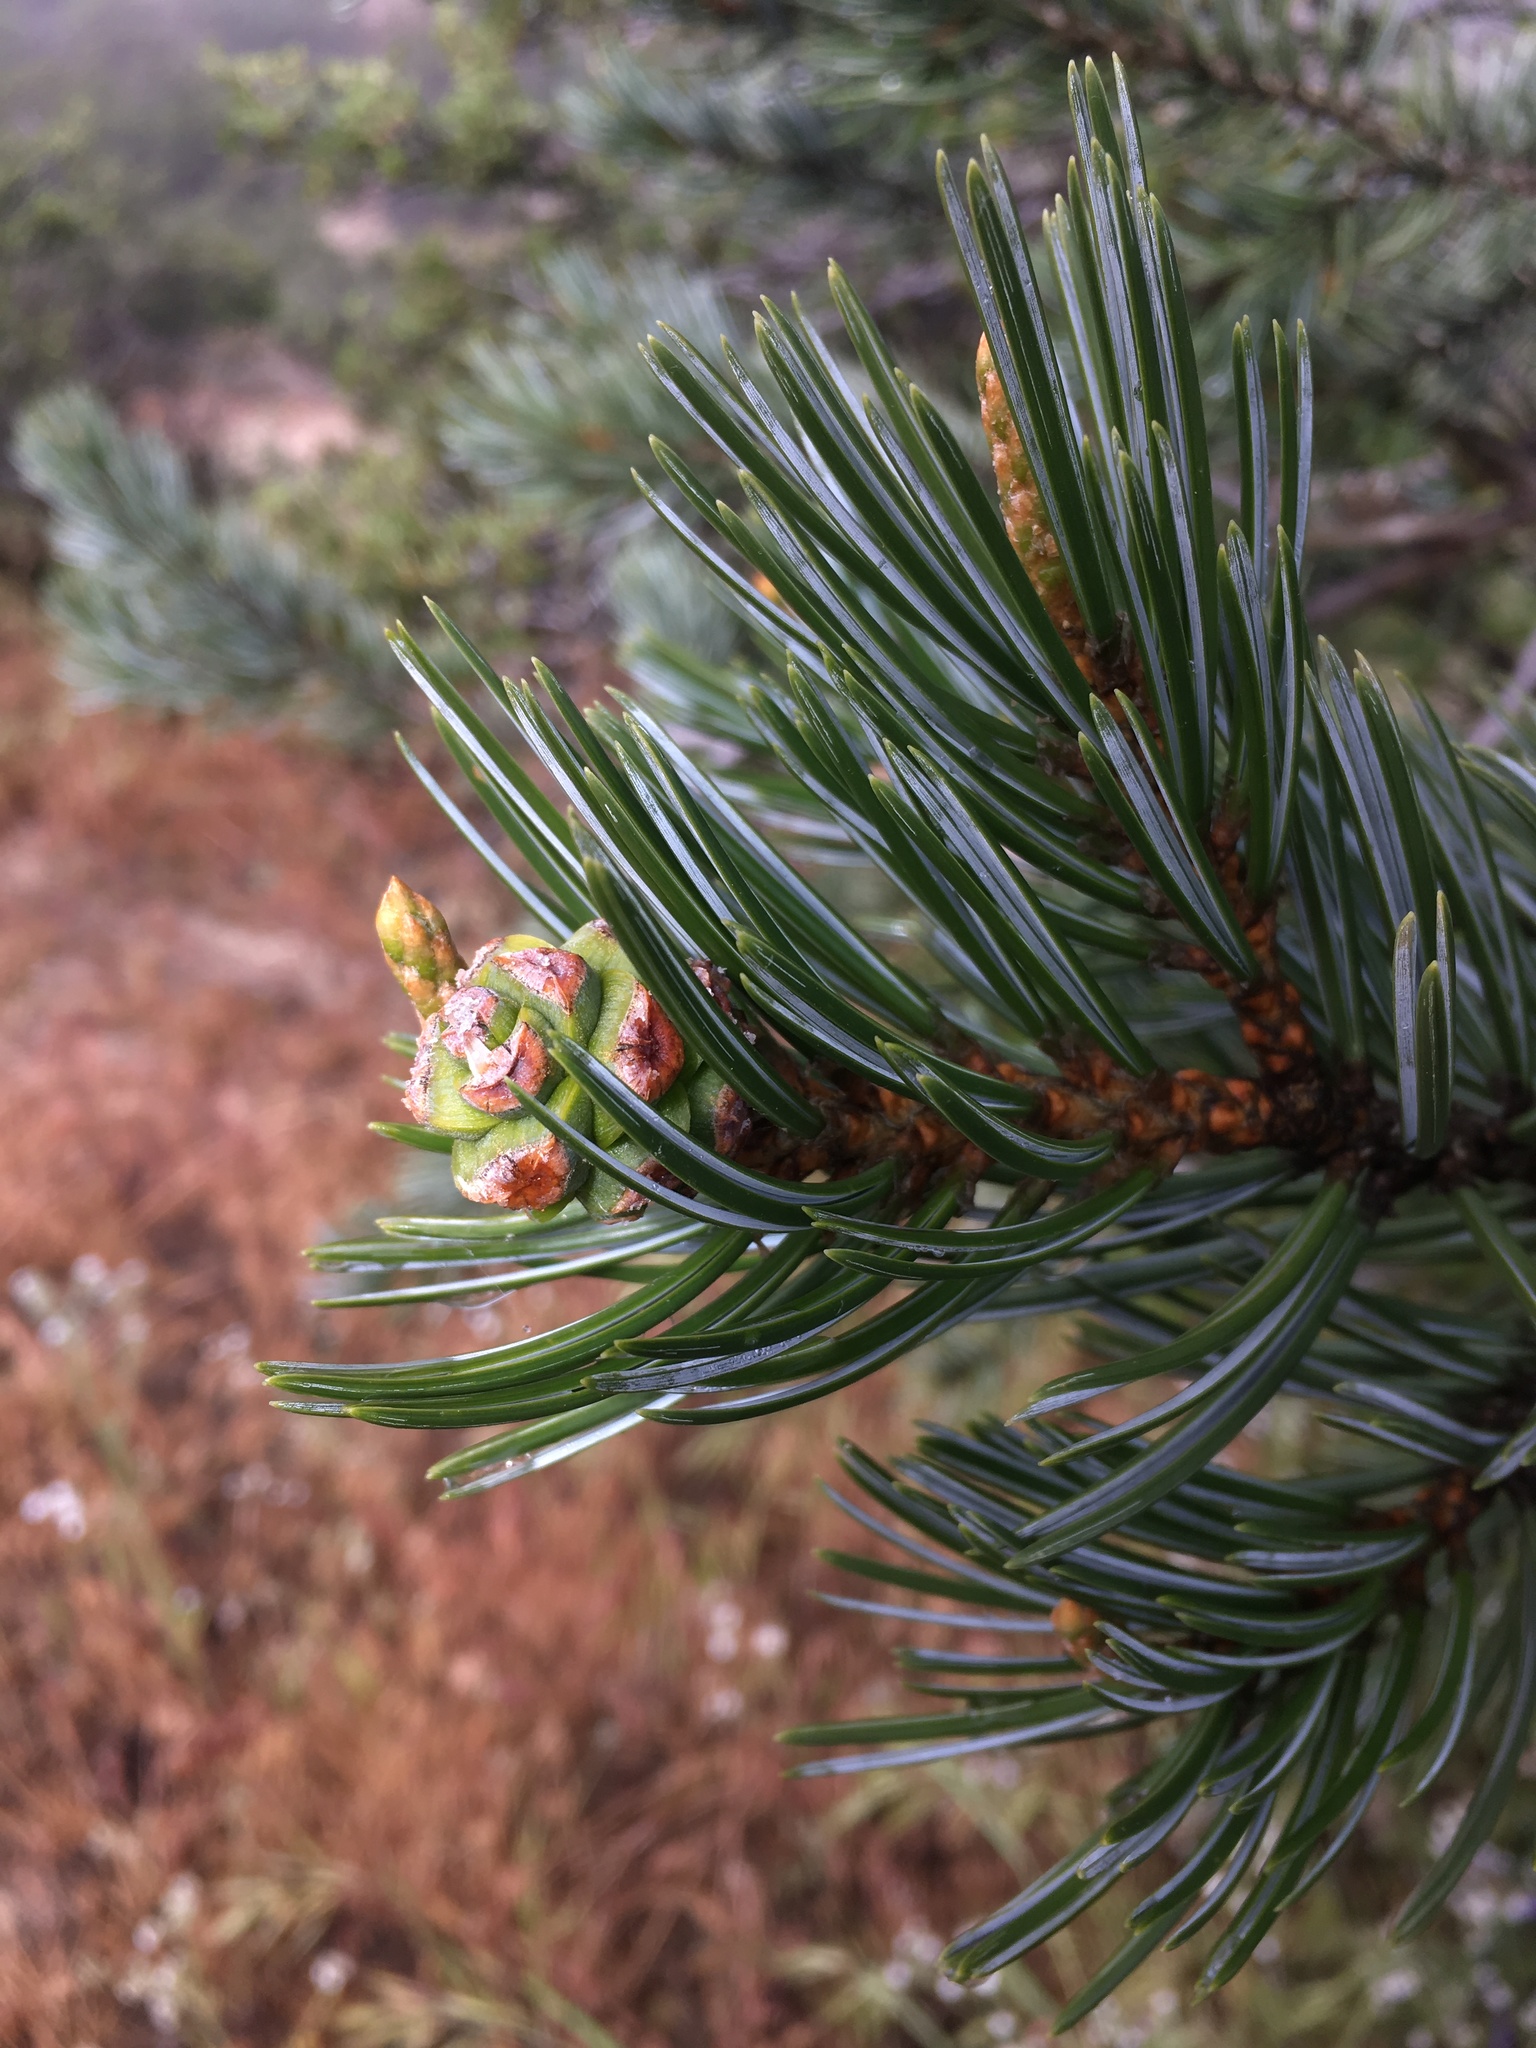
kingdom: Plantae
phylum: Tracheophyta
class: Pinopsida
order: Pinales
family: Pinaceae
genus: Pinus
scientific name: Pinus quadrifolia
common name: Parry pinyon
